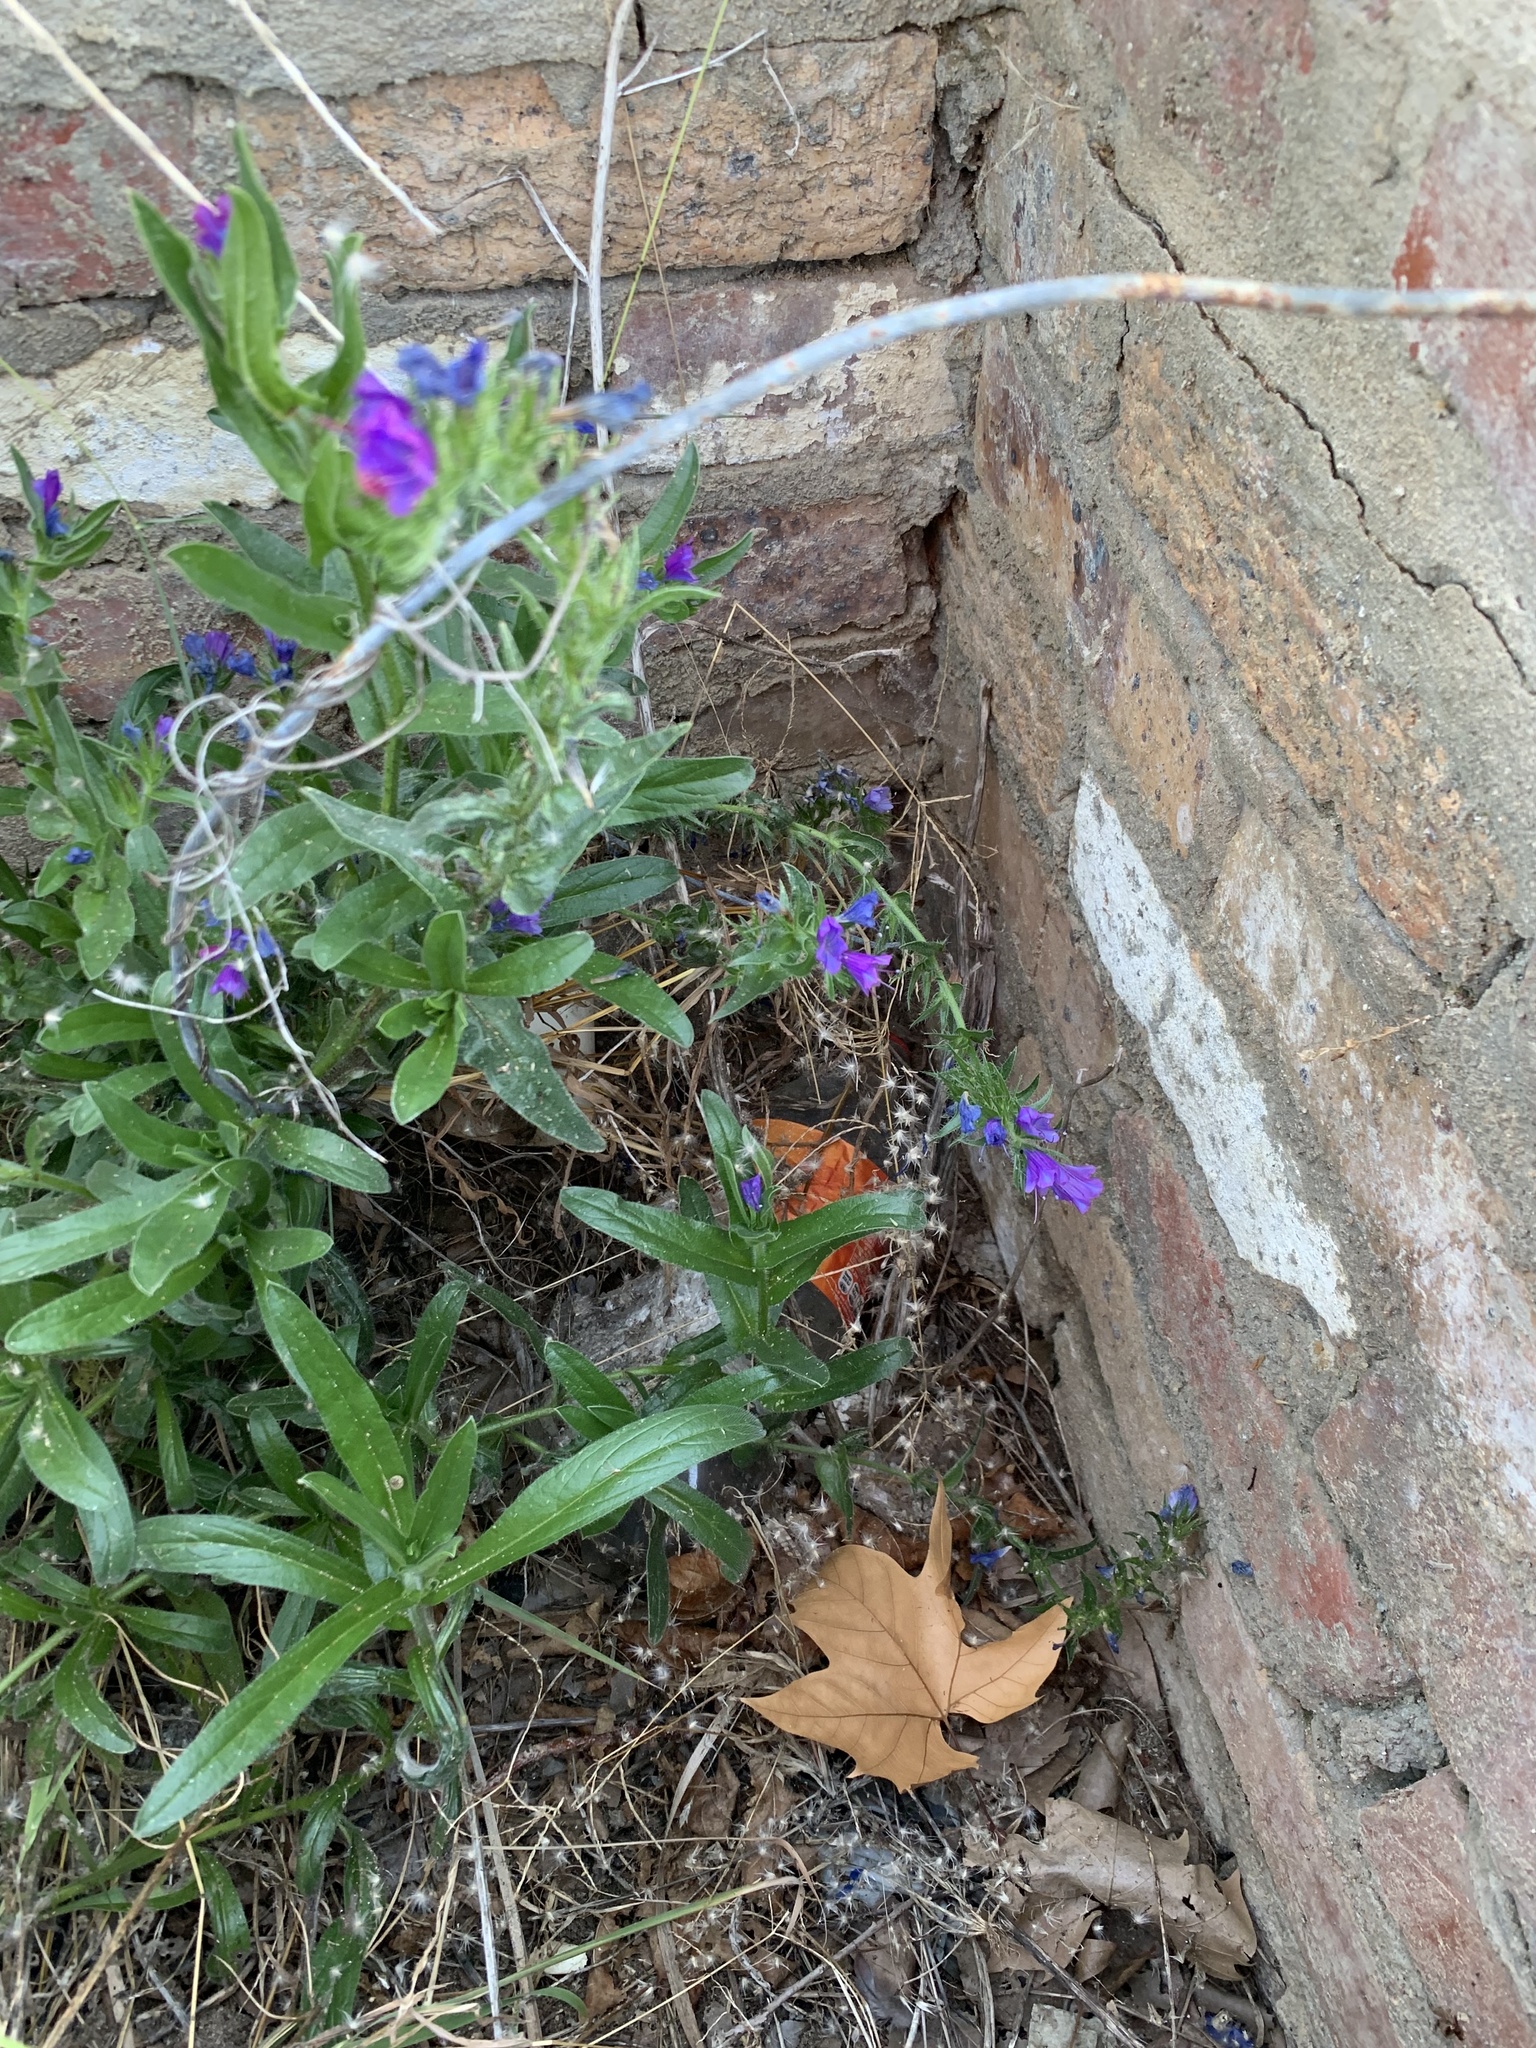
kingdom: Plantae
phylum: Tracheophyta
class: Magnoliopsida
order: Boraginales
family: Boraginaceae
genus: Echium
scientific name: Echium plantagineum
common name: Purple viper's-bugloss
